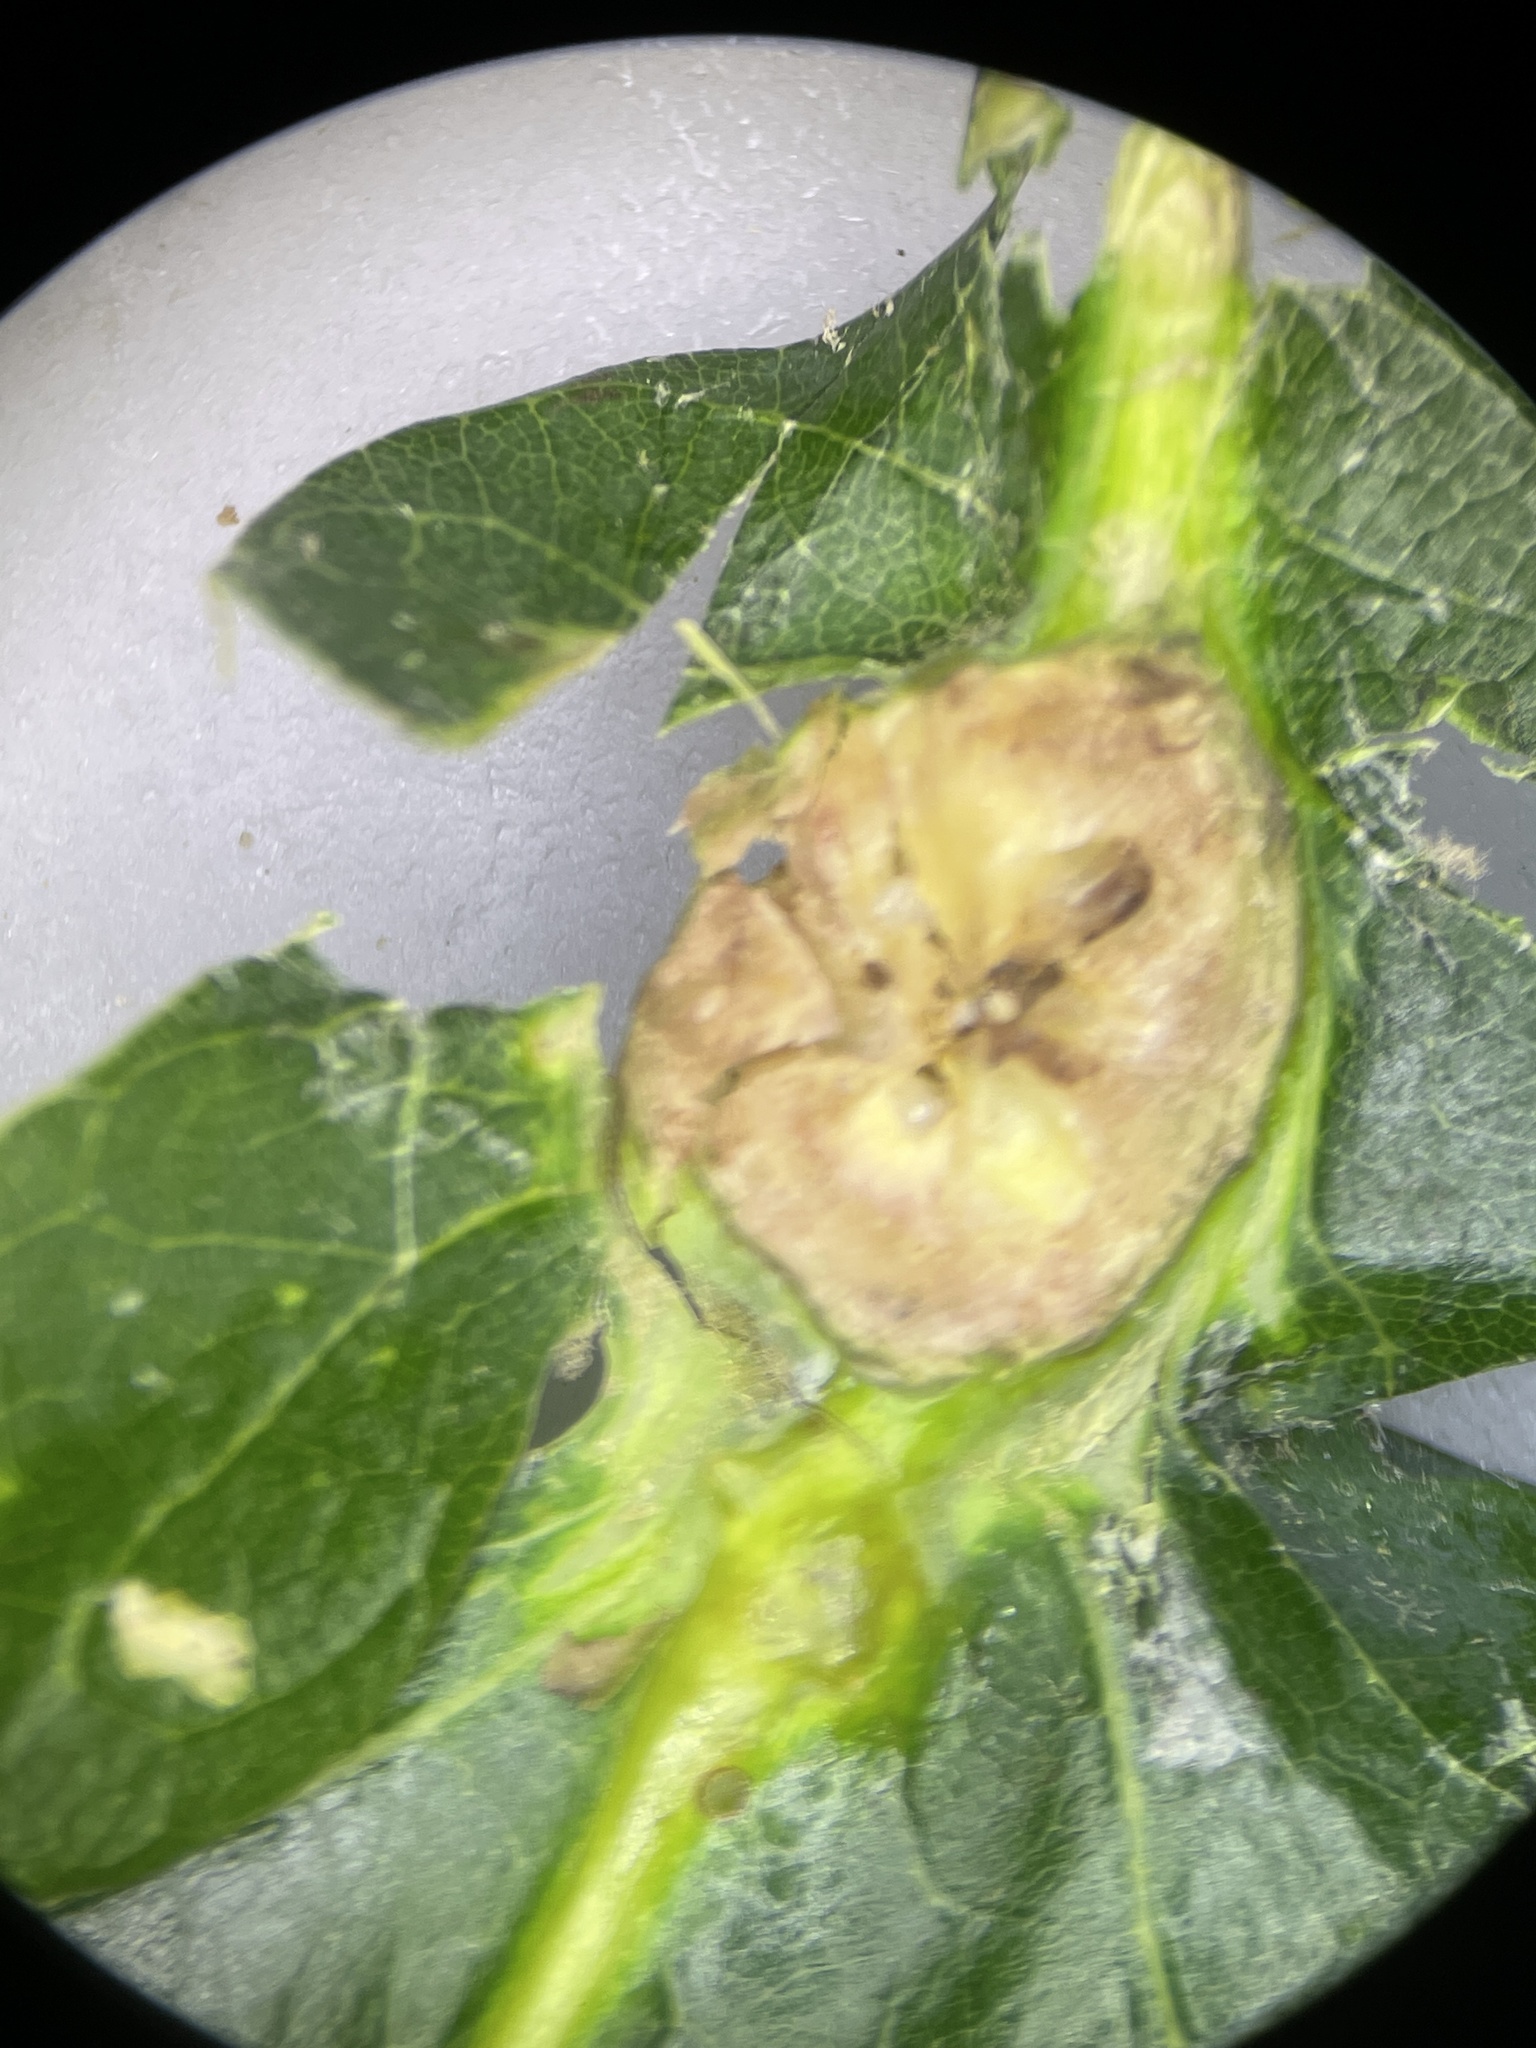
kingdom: Animalia
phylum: Arthropoda
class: Insecta
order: Hymenoptera
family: Cynipidae
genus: Andricus
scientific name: Andricus
